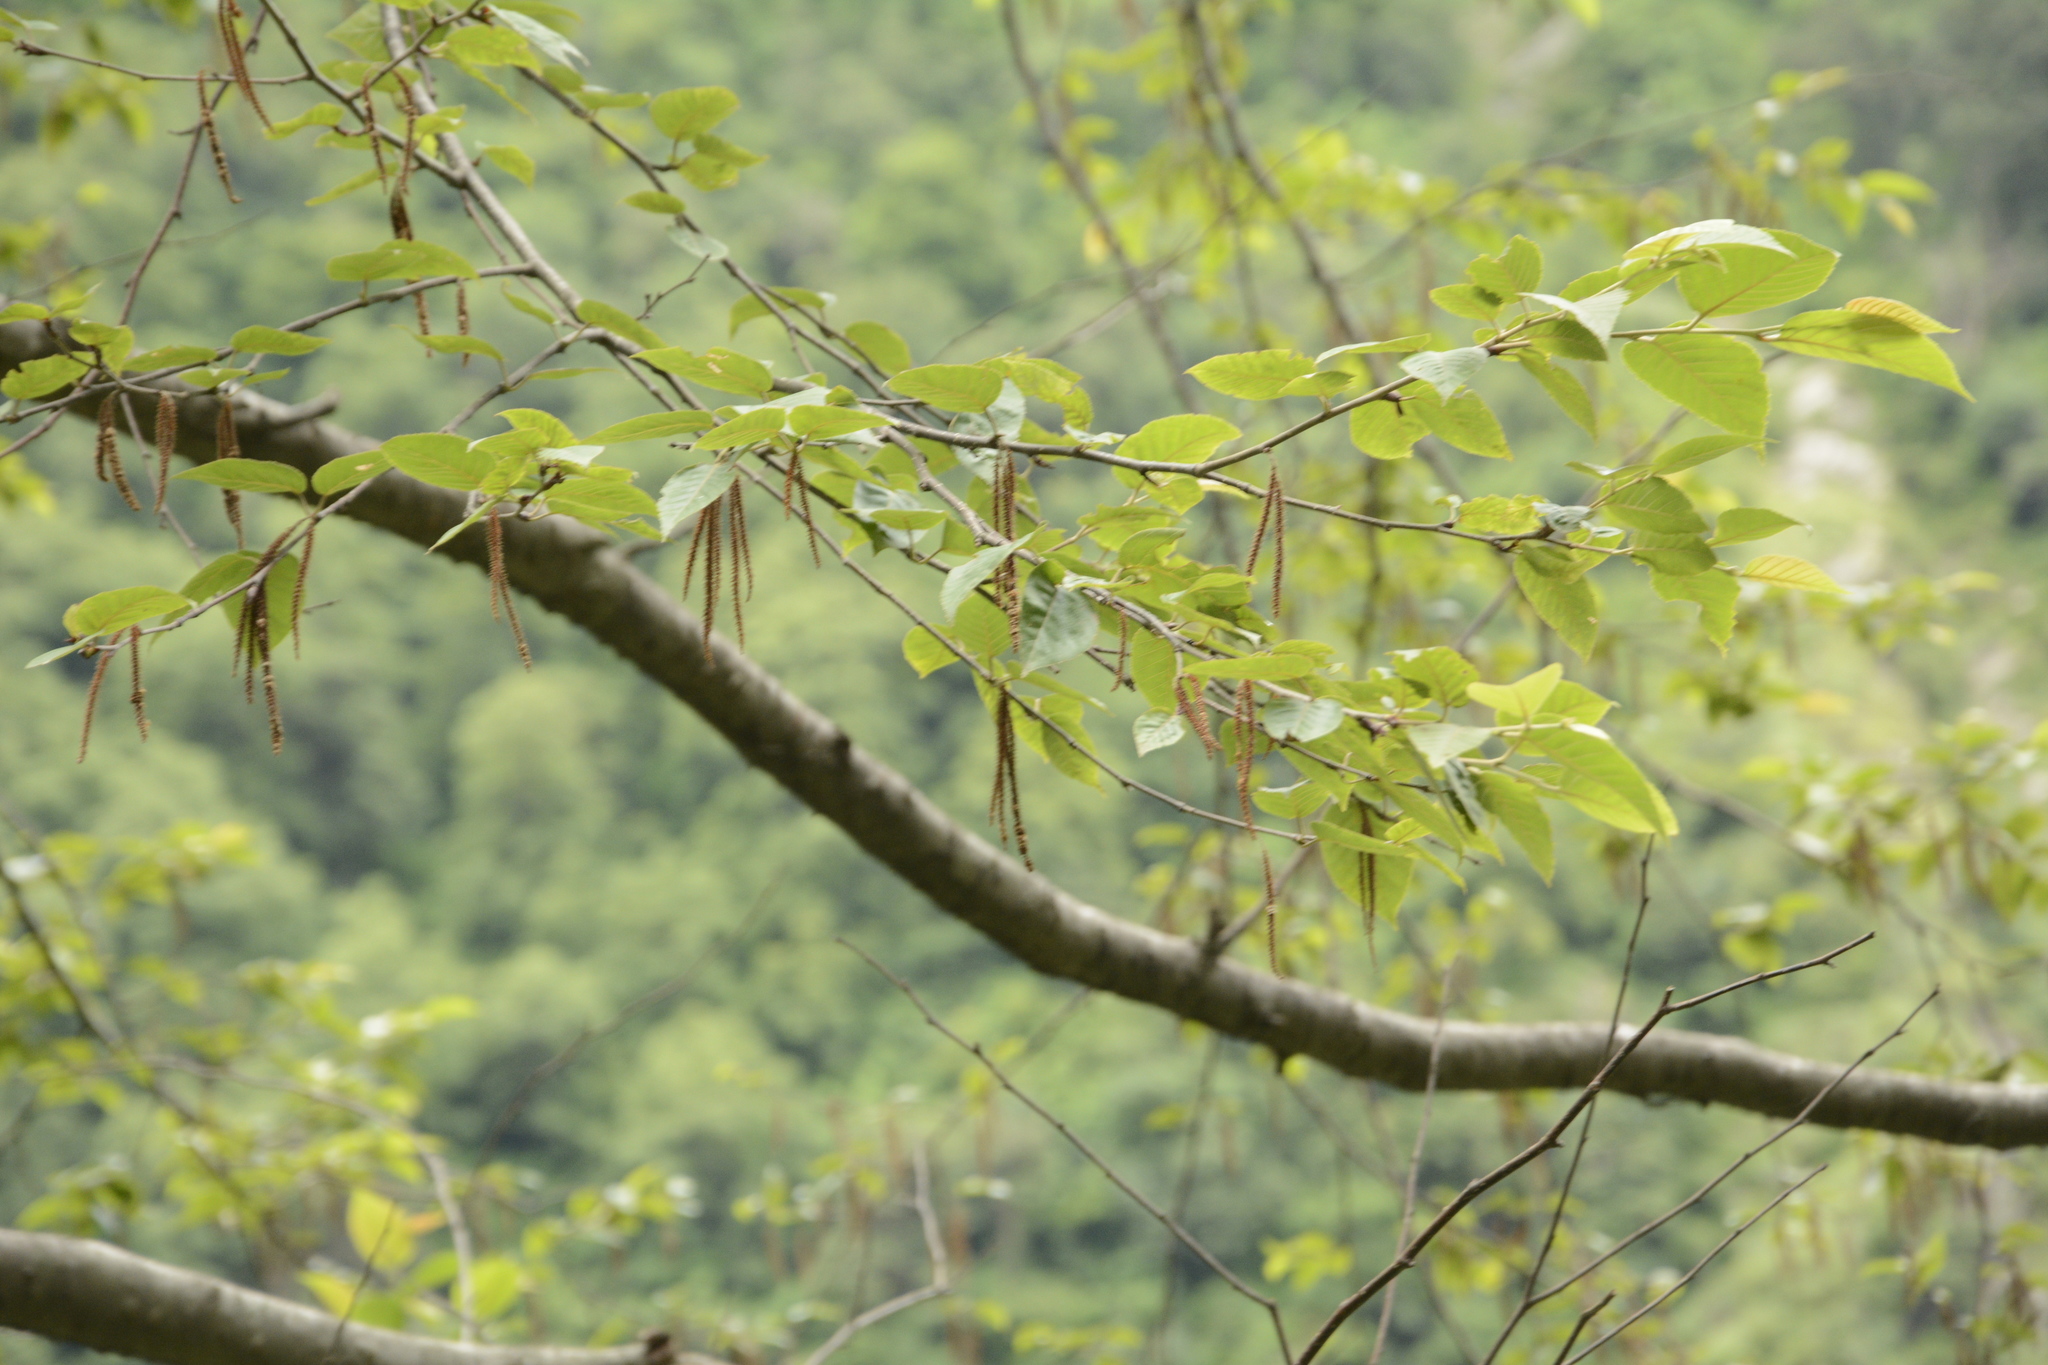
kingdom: Plantae
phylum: Tracheophyta
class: Magnoliopsida
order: Fagales
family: Betulaceae
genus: Betula
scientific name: Betula alnoides
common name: Indian birch
